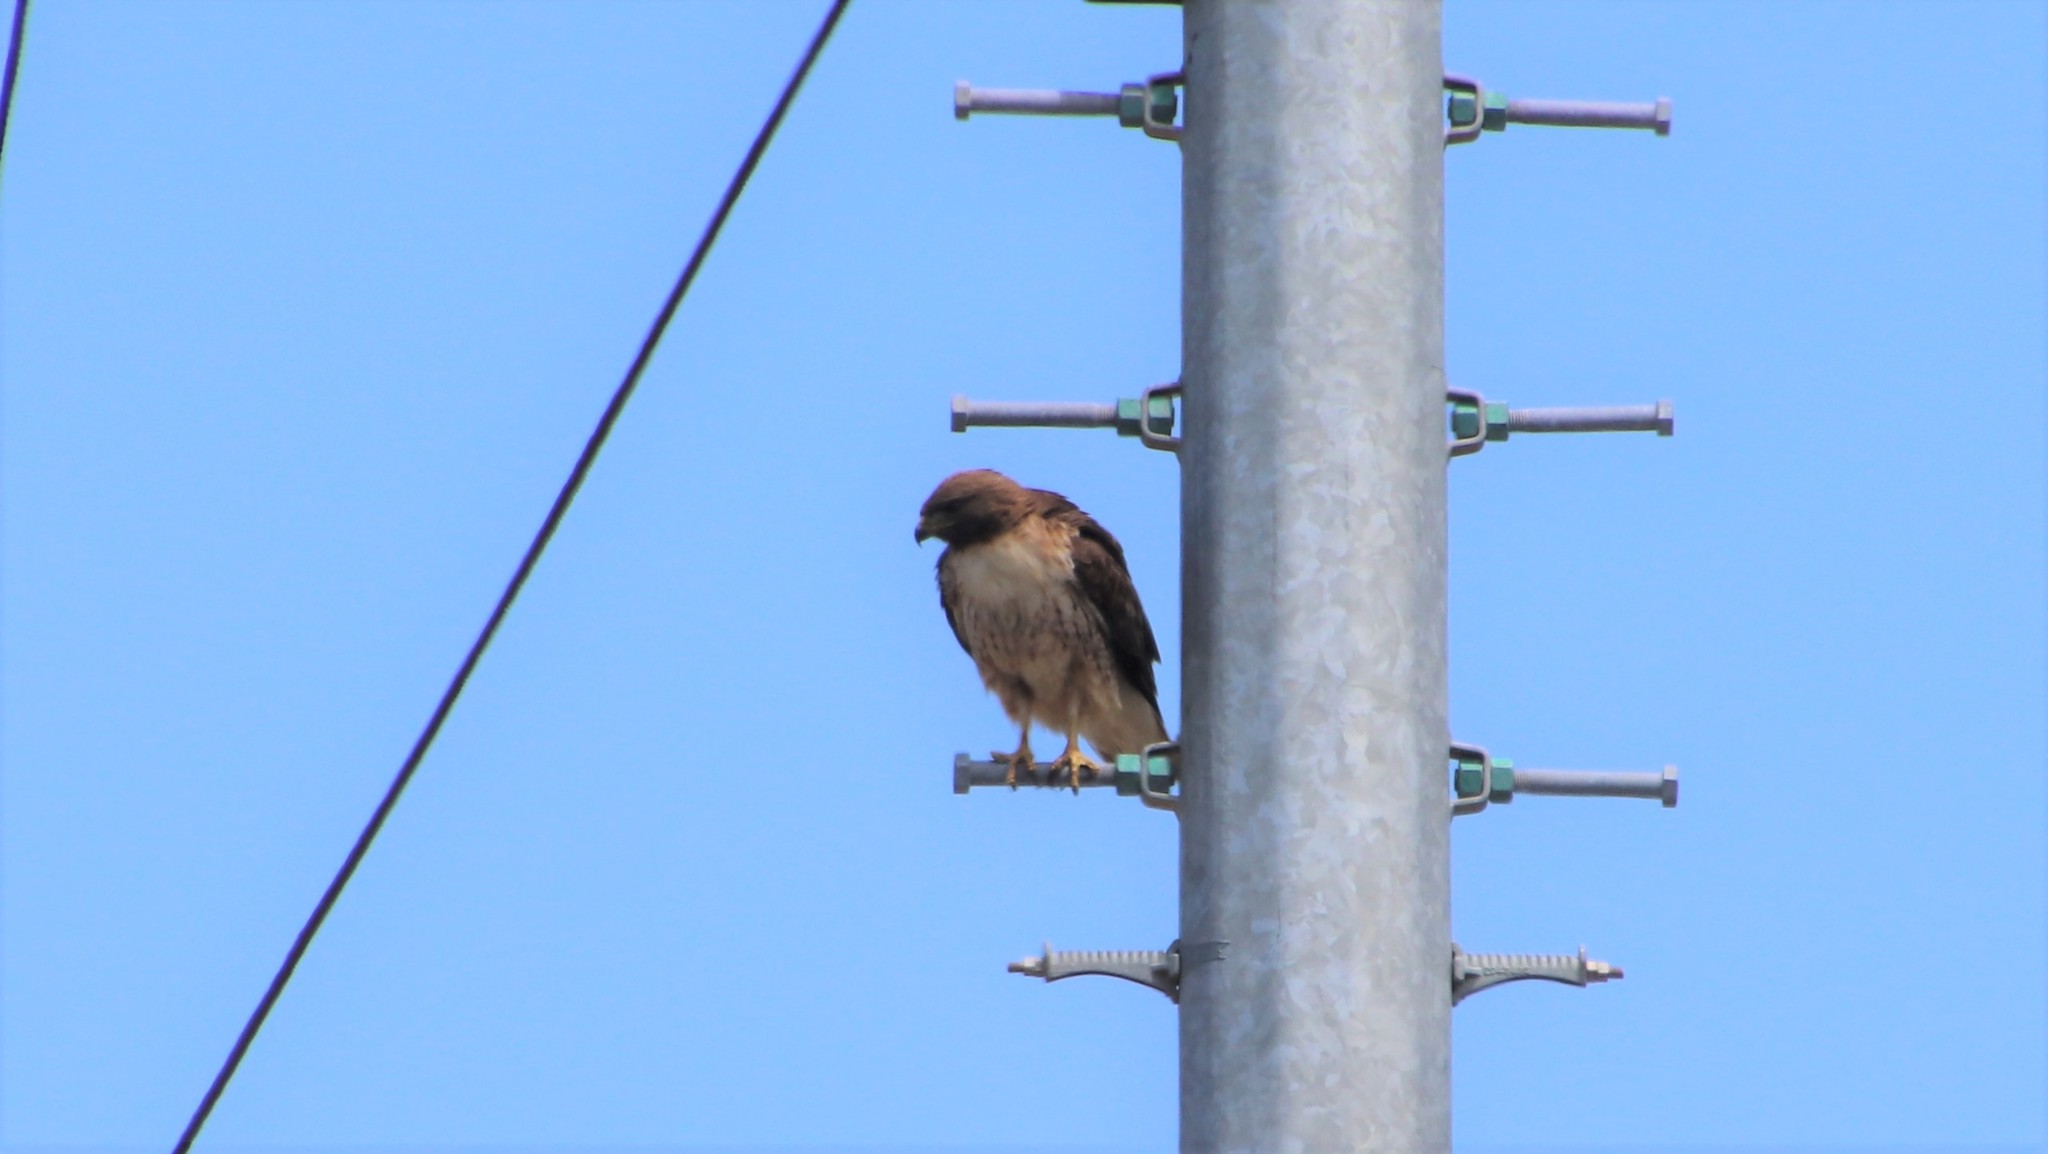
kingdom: Animalia
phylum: Chordata
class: Aves
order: Accipitriformes
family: Accipitridae
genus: Buteo
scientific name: Buteo jamaicensis
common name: Red-tailed hawk
